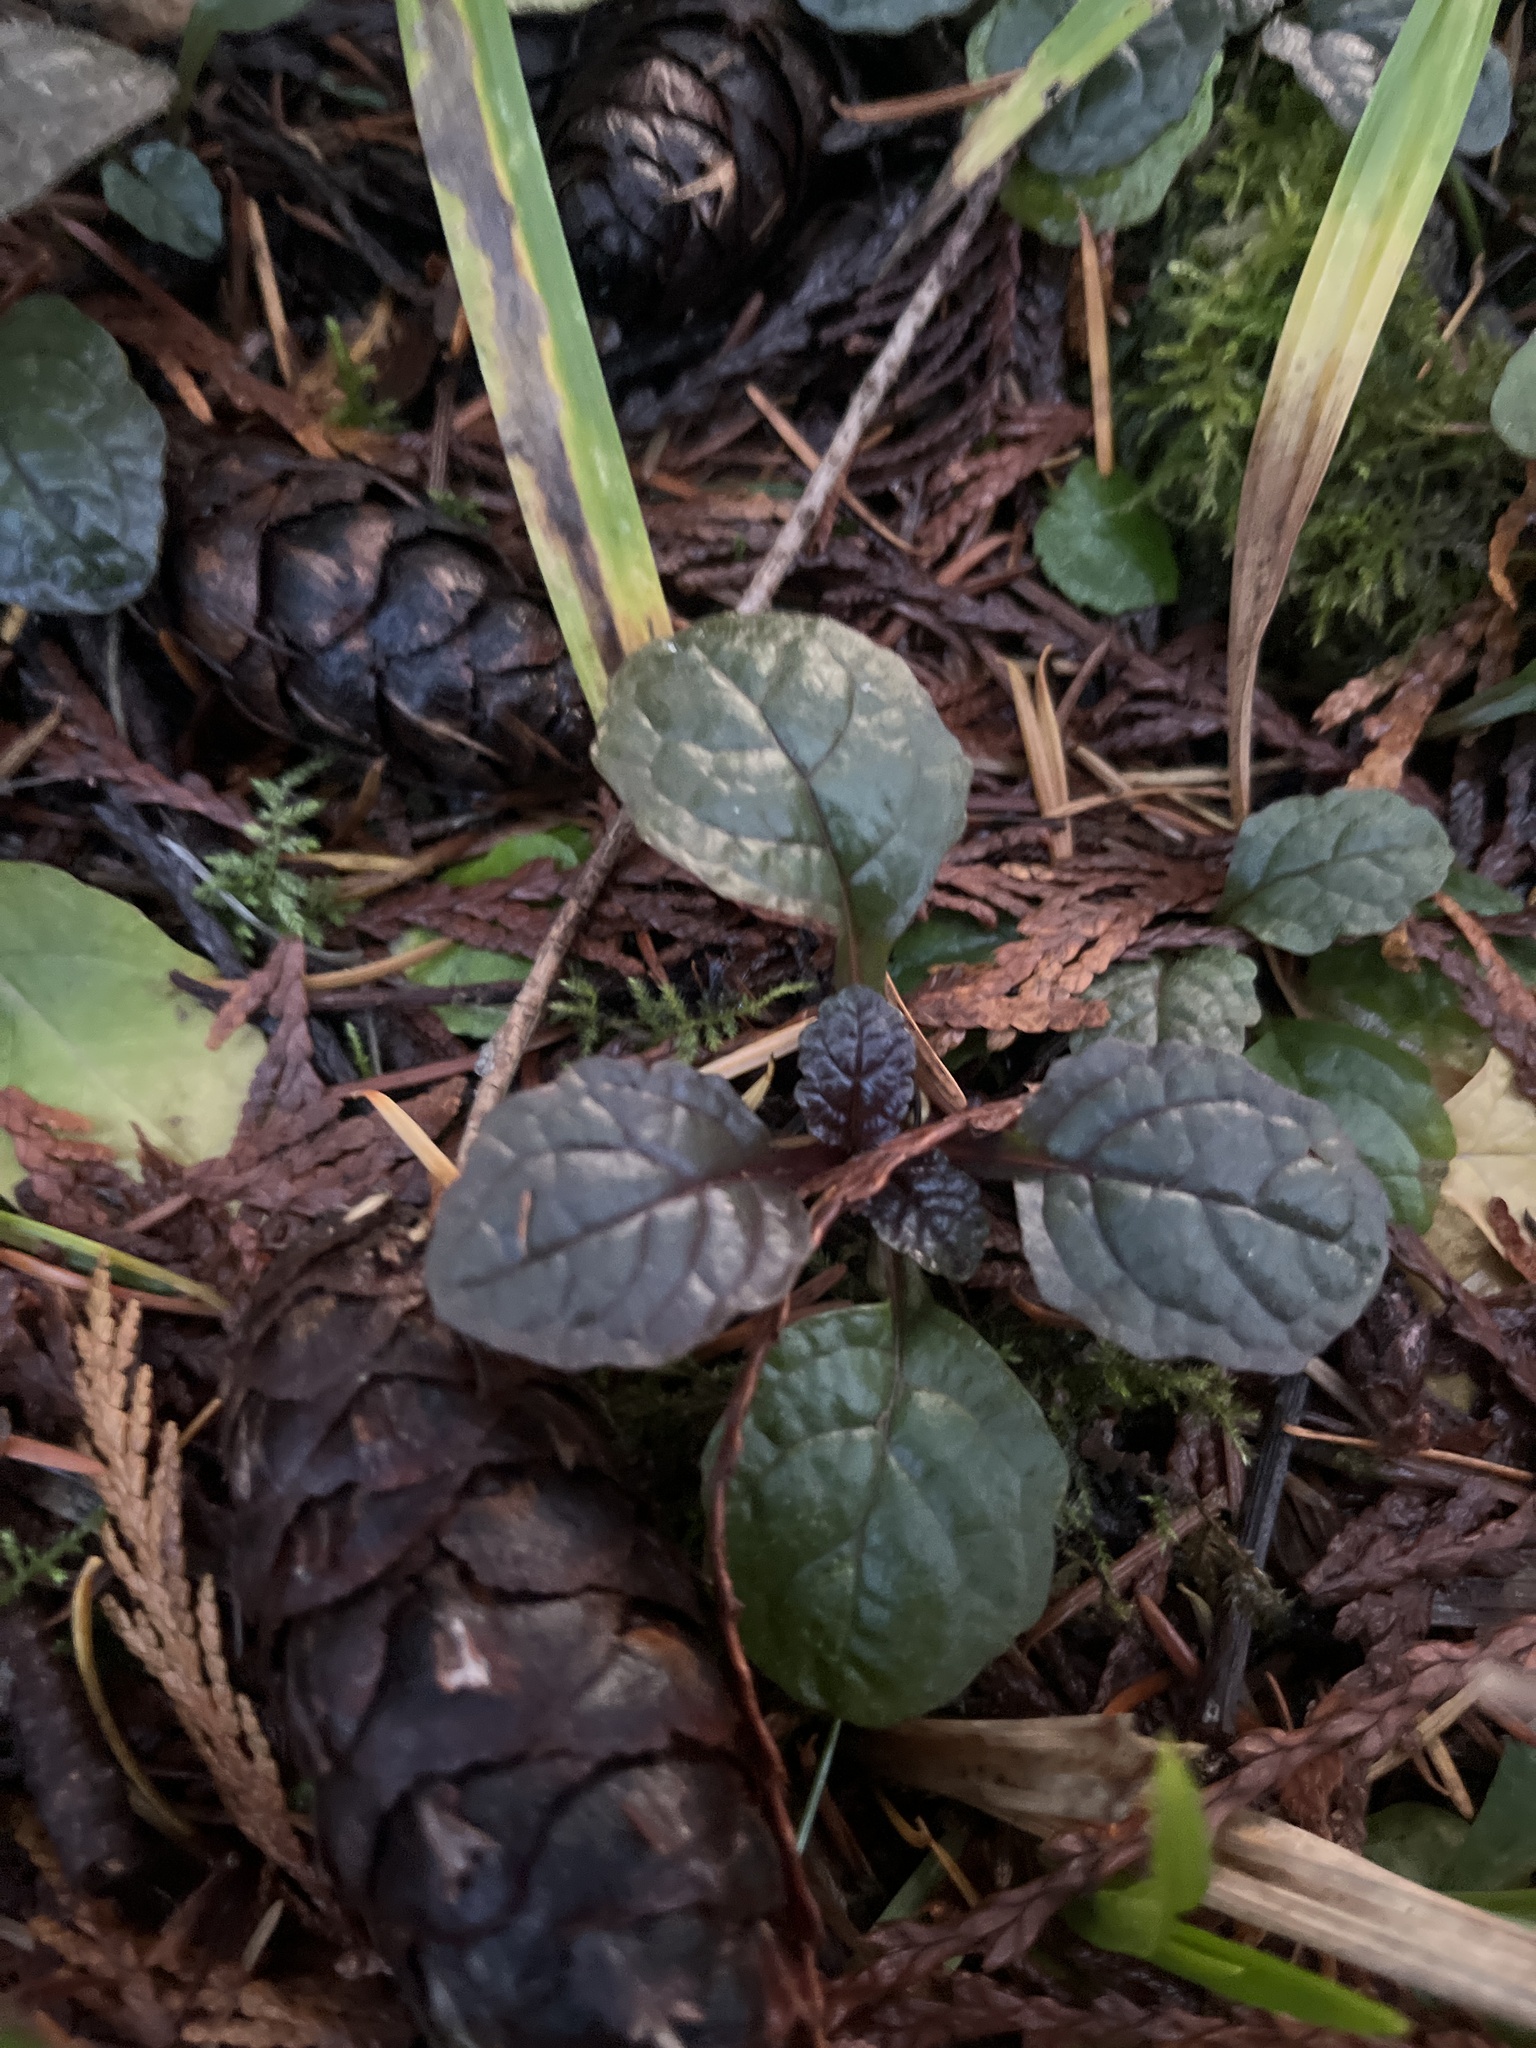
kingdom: Plantae
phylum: Tracheophyta
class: Magnoliopsida
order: Lamiales
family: Lamiaceae
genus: Ajuga
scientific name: Ajuga reptans
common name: Bugle
